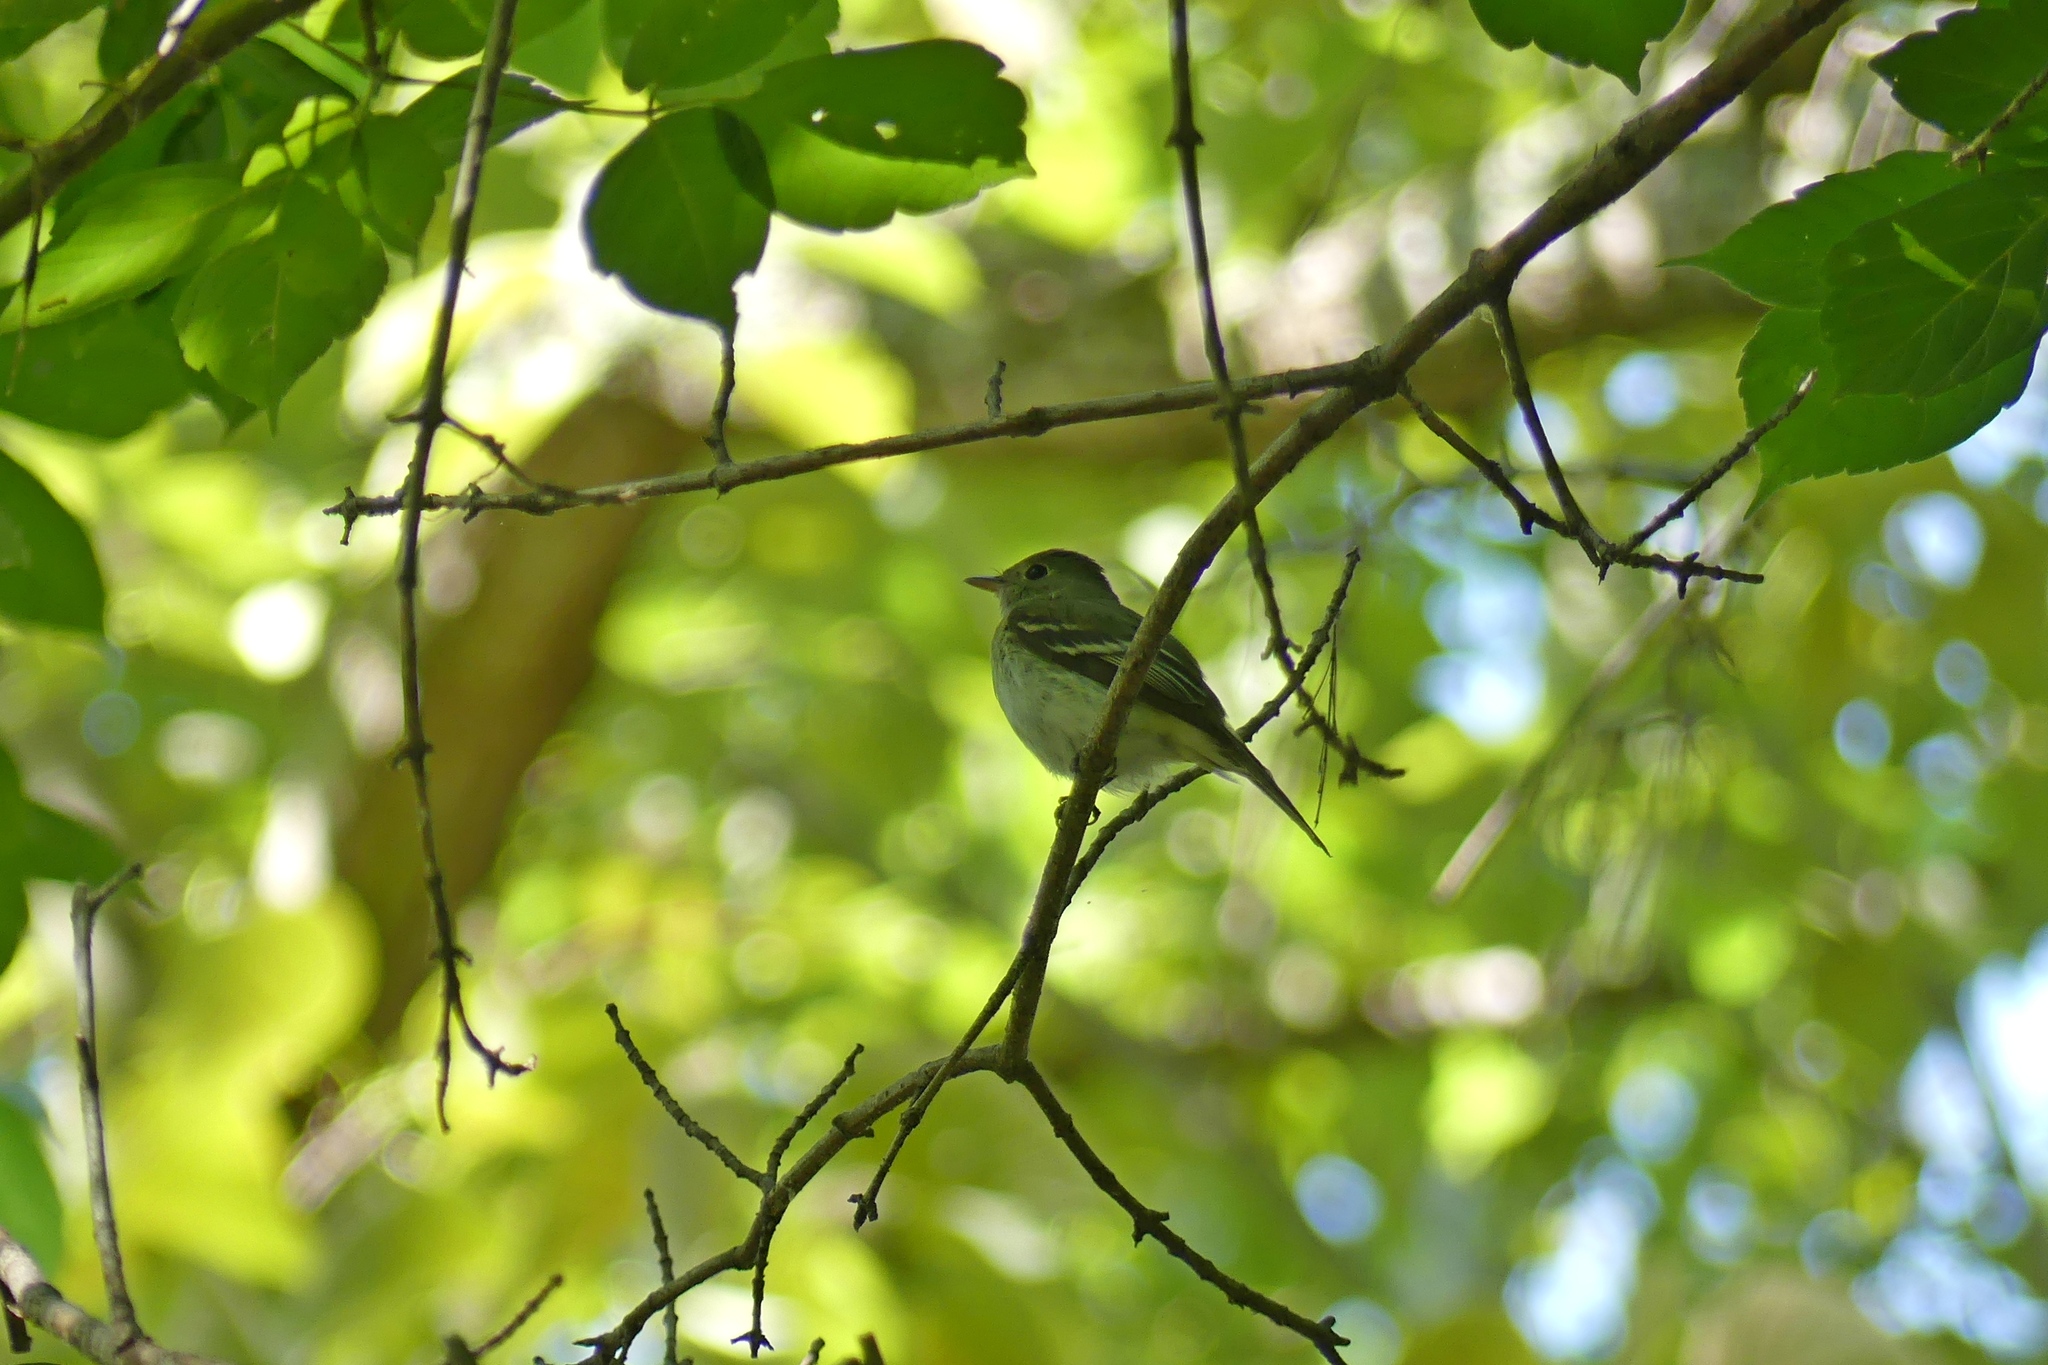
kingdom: Animalia
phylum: Chordata
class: Aves
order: Passeriformes
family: Tyrannidae
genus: Empidonax
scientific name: Empidonax virescens
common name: Acadian flycatcher
